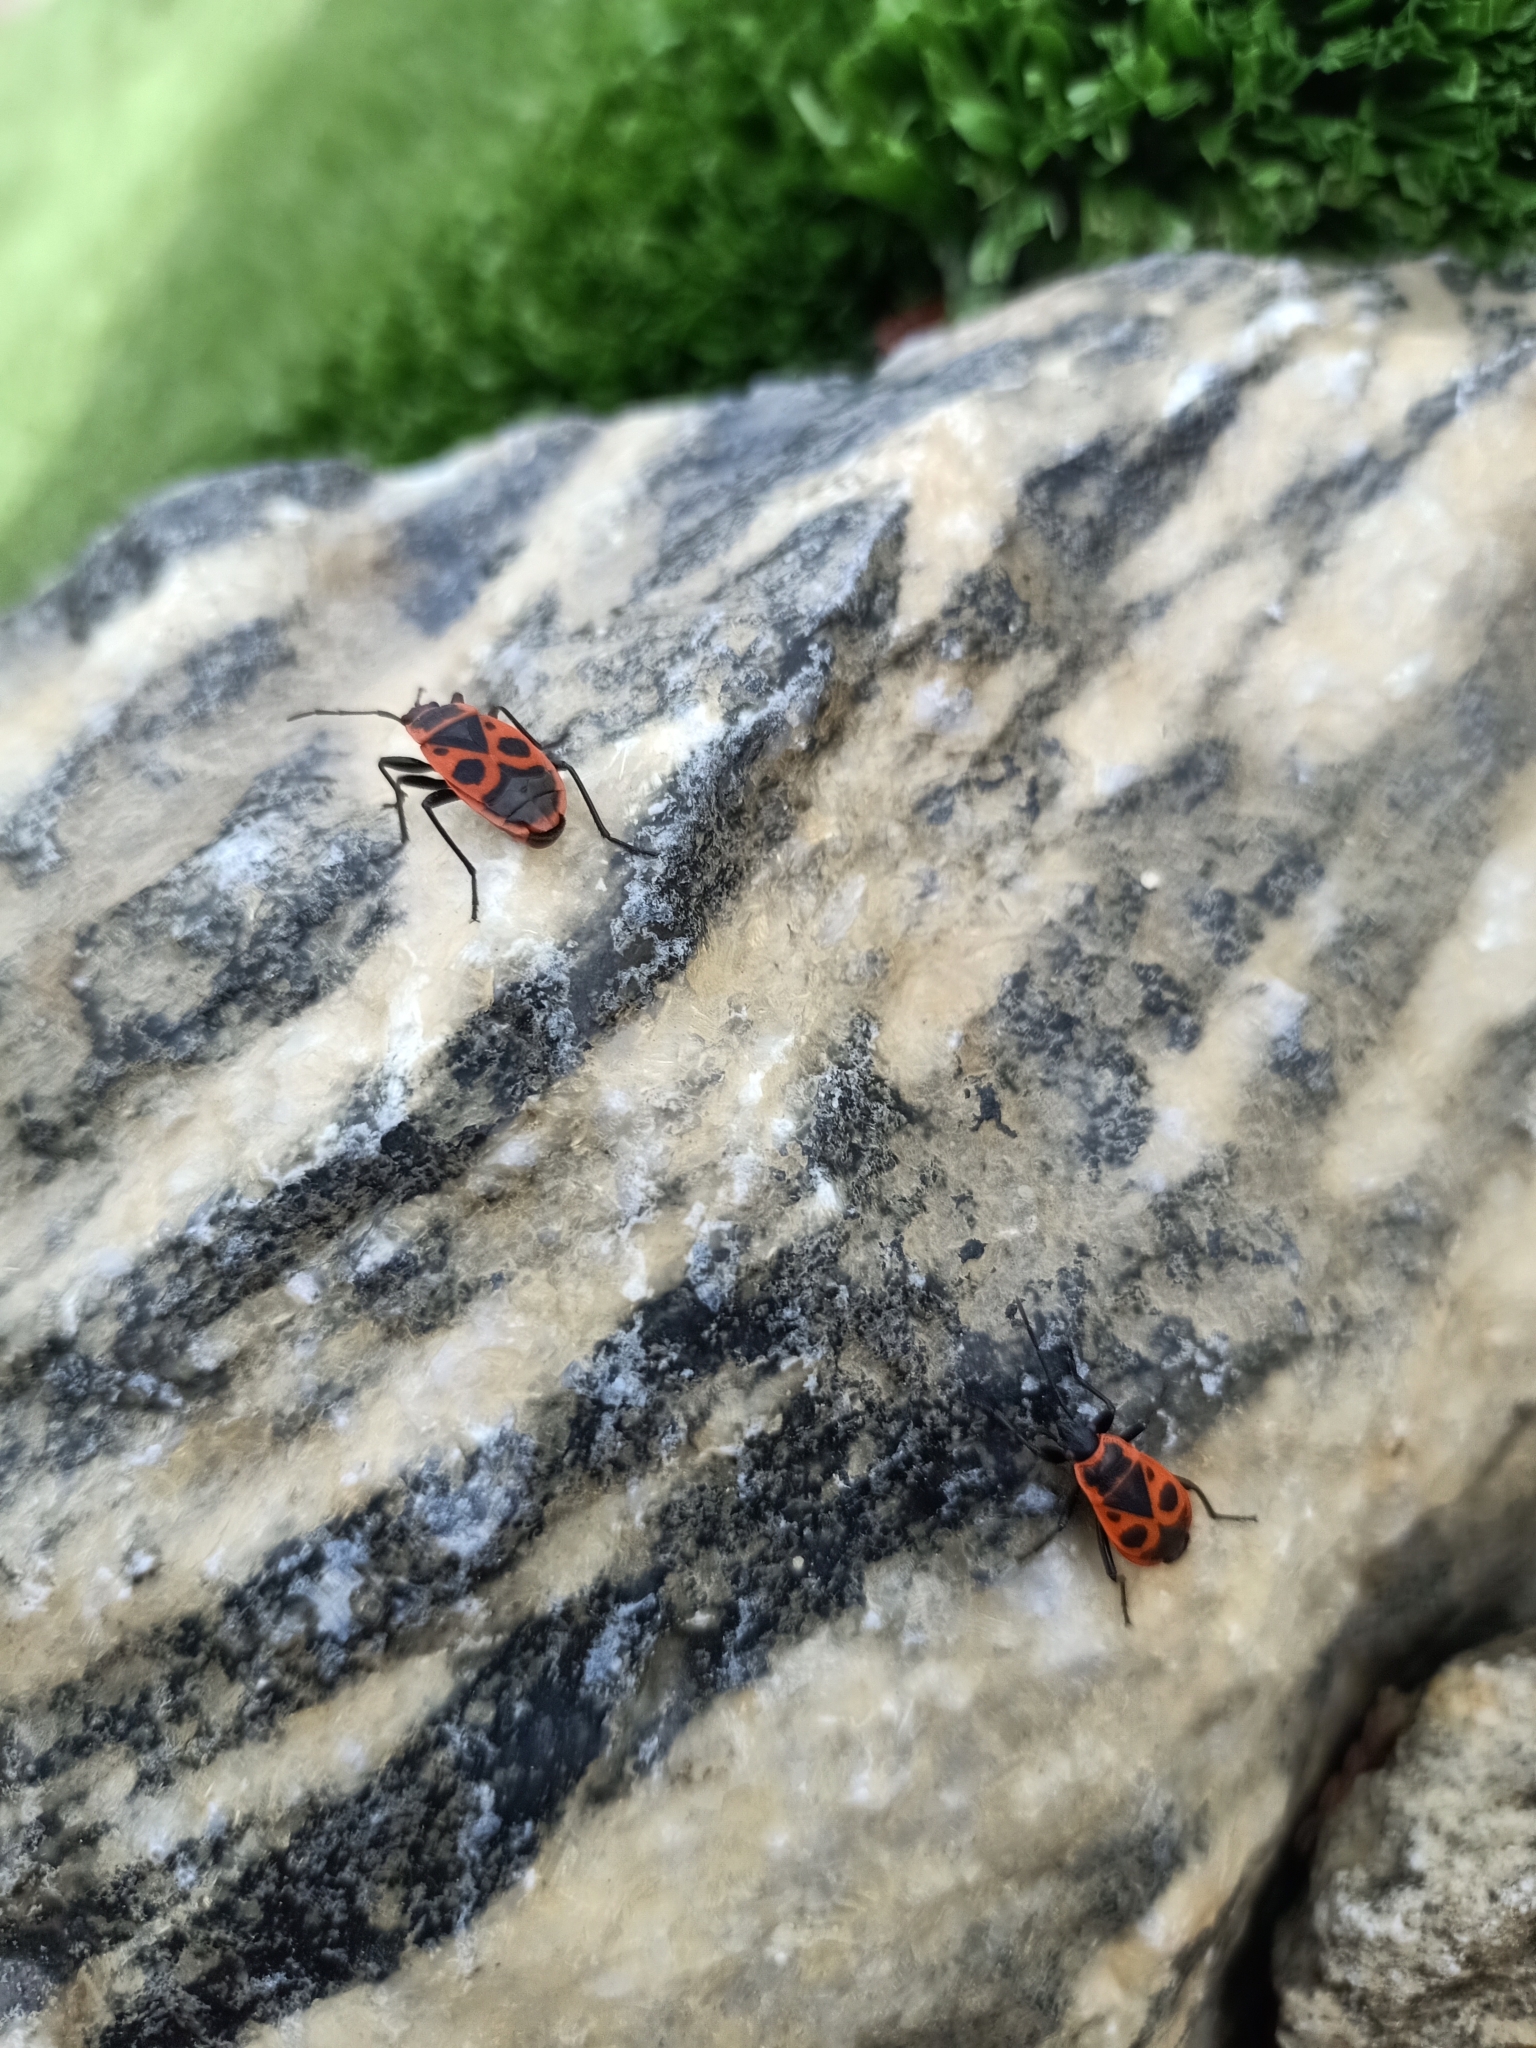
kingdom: Animalia
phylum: Arthropoda
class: Insecta
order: Hemiptera
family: Pyrrhocoridae
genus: Pyrrhocoris
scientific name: Pyrrhocoris apterus
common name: Firebug
